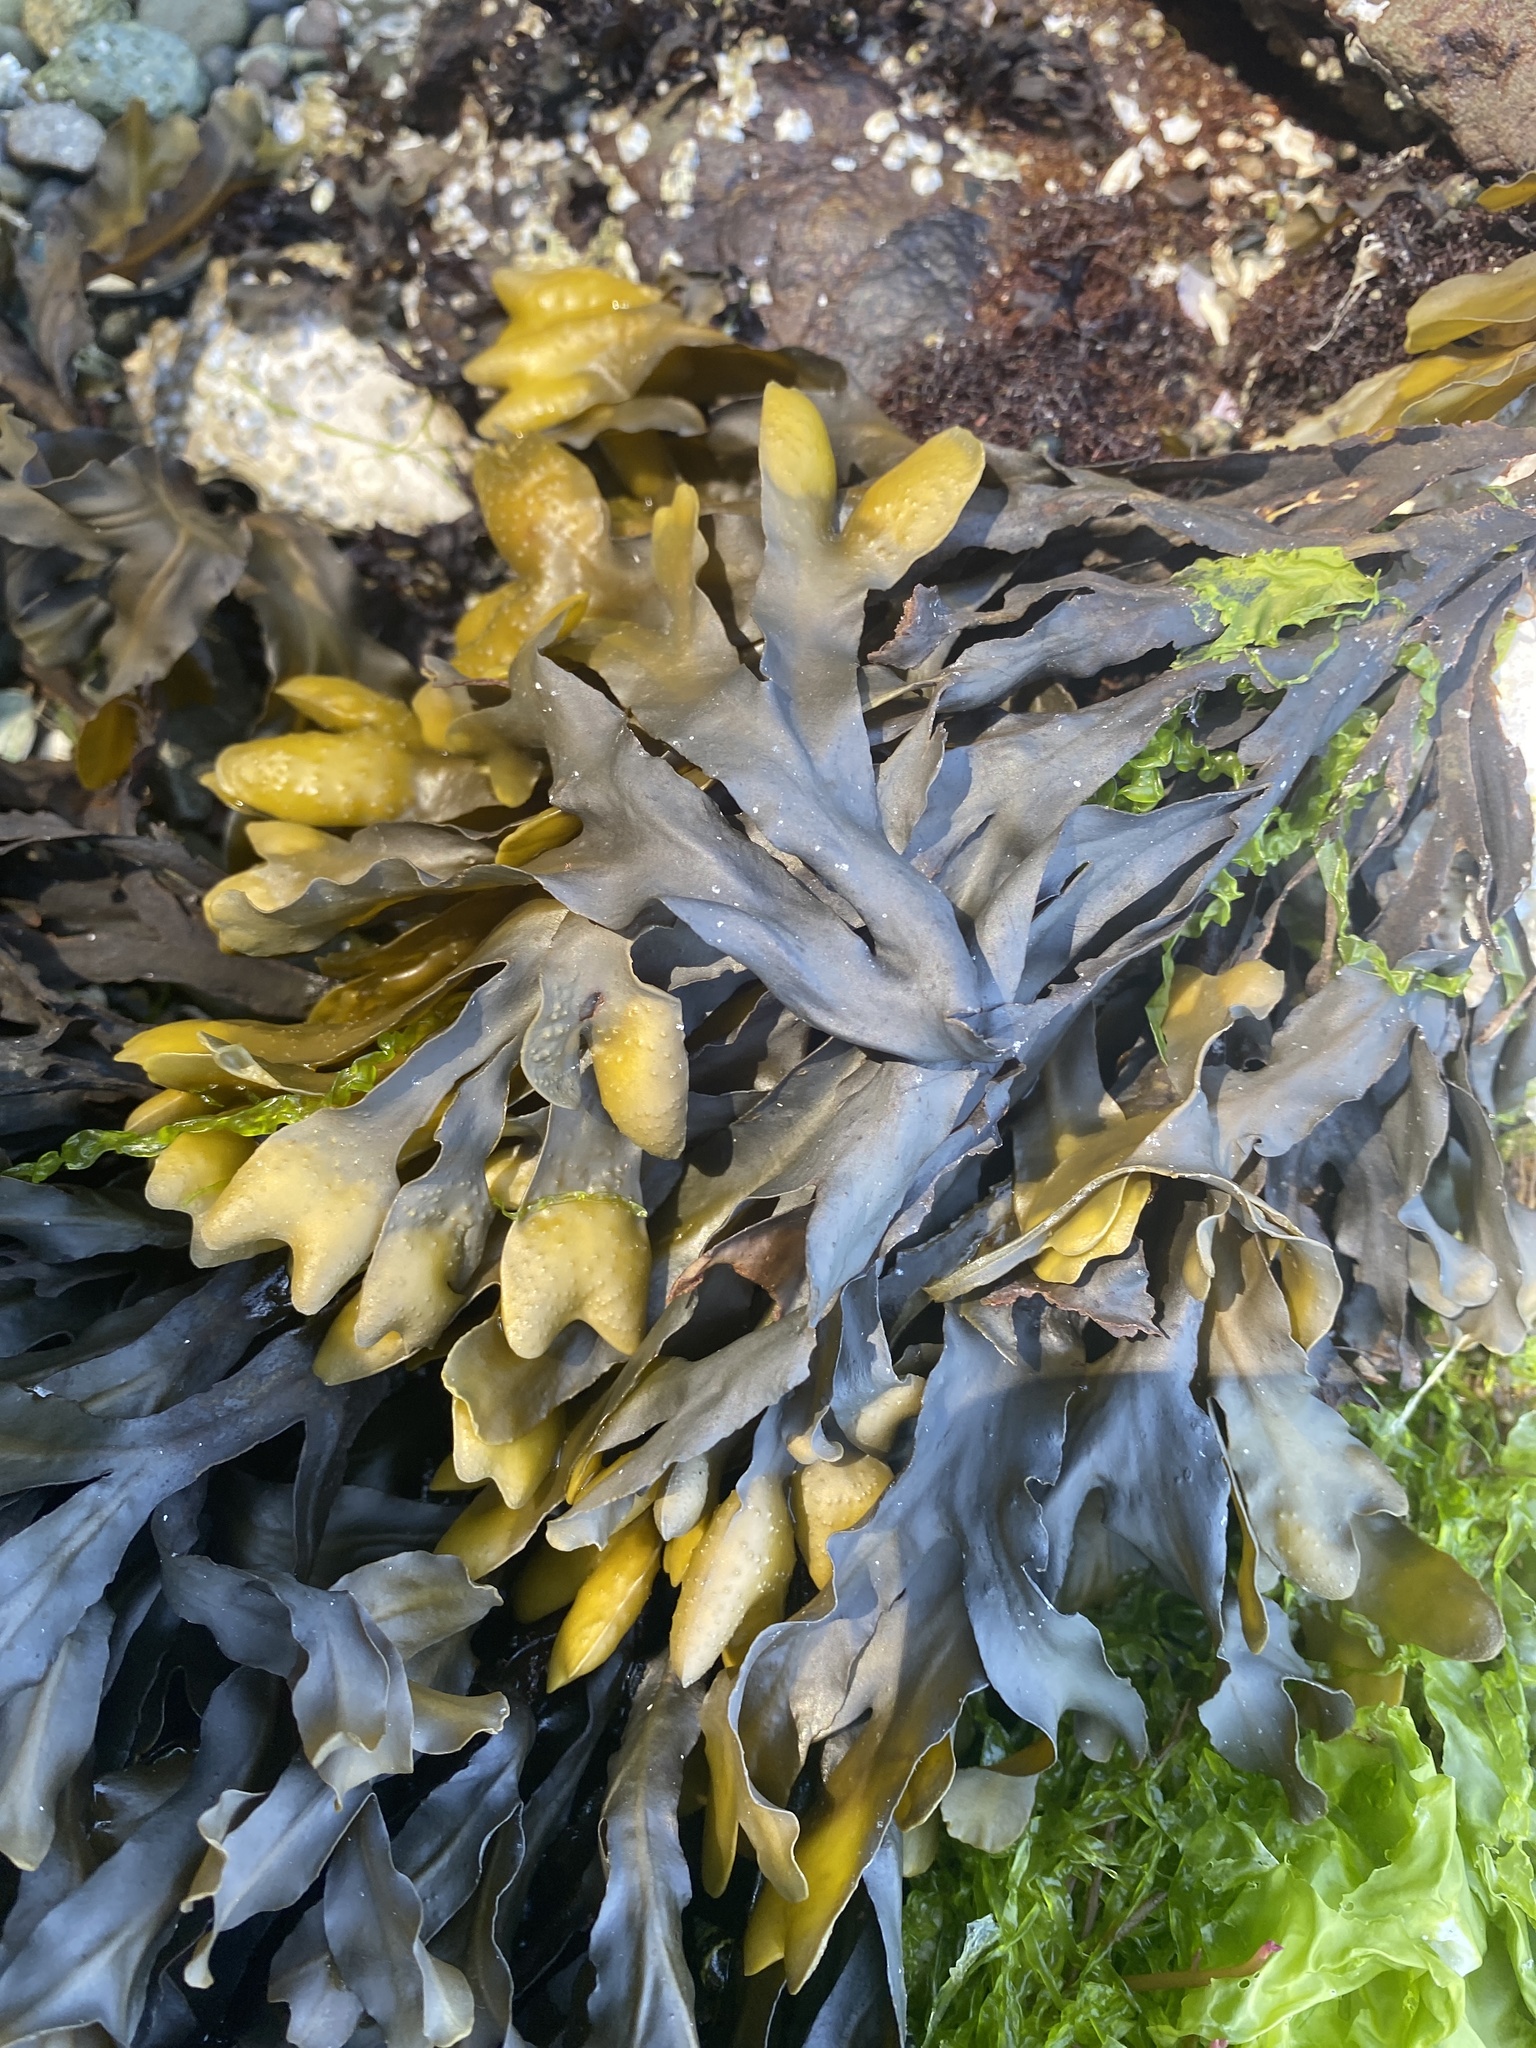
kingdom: Chromista
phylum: Ochrophyta
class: Phaeophyceae
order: Fucales
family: Fucaceae
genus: Fucus
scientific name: Fucus distichus
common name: Rockweed
